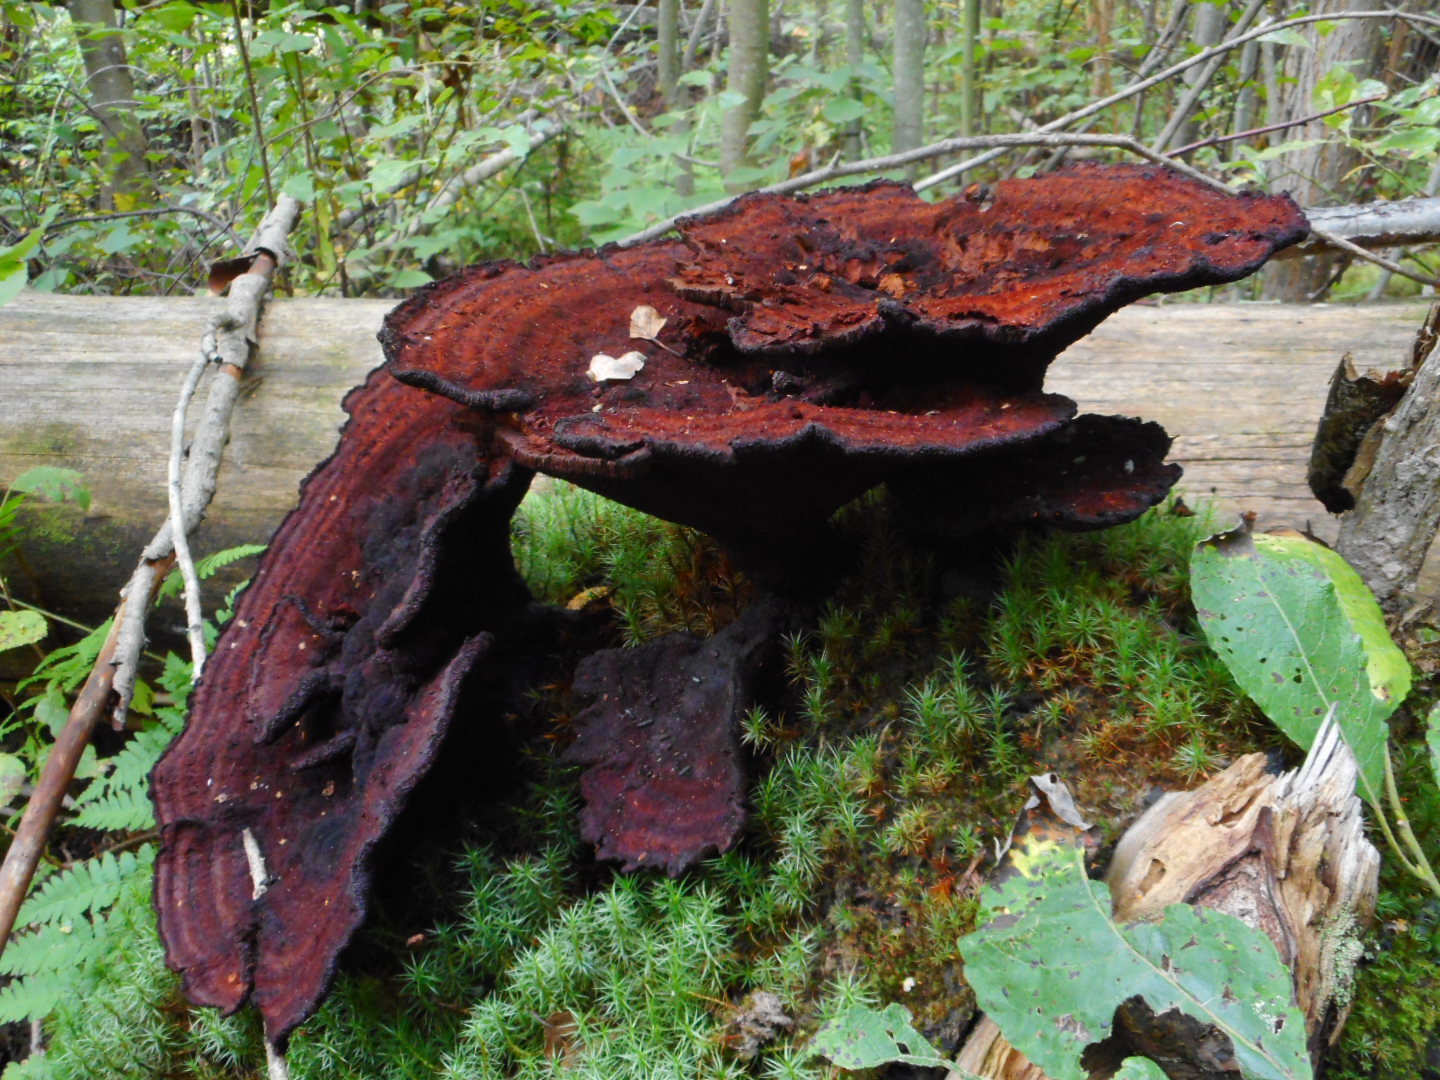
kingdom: Fungi
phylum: Basidiomycota
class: Agaricomycetes
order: Polyporales
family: Laetiporaceae
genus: Phaeolus
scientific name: Phaeolus schweinitzii
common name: Dyer's mazegill
